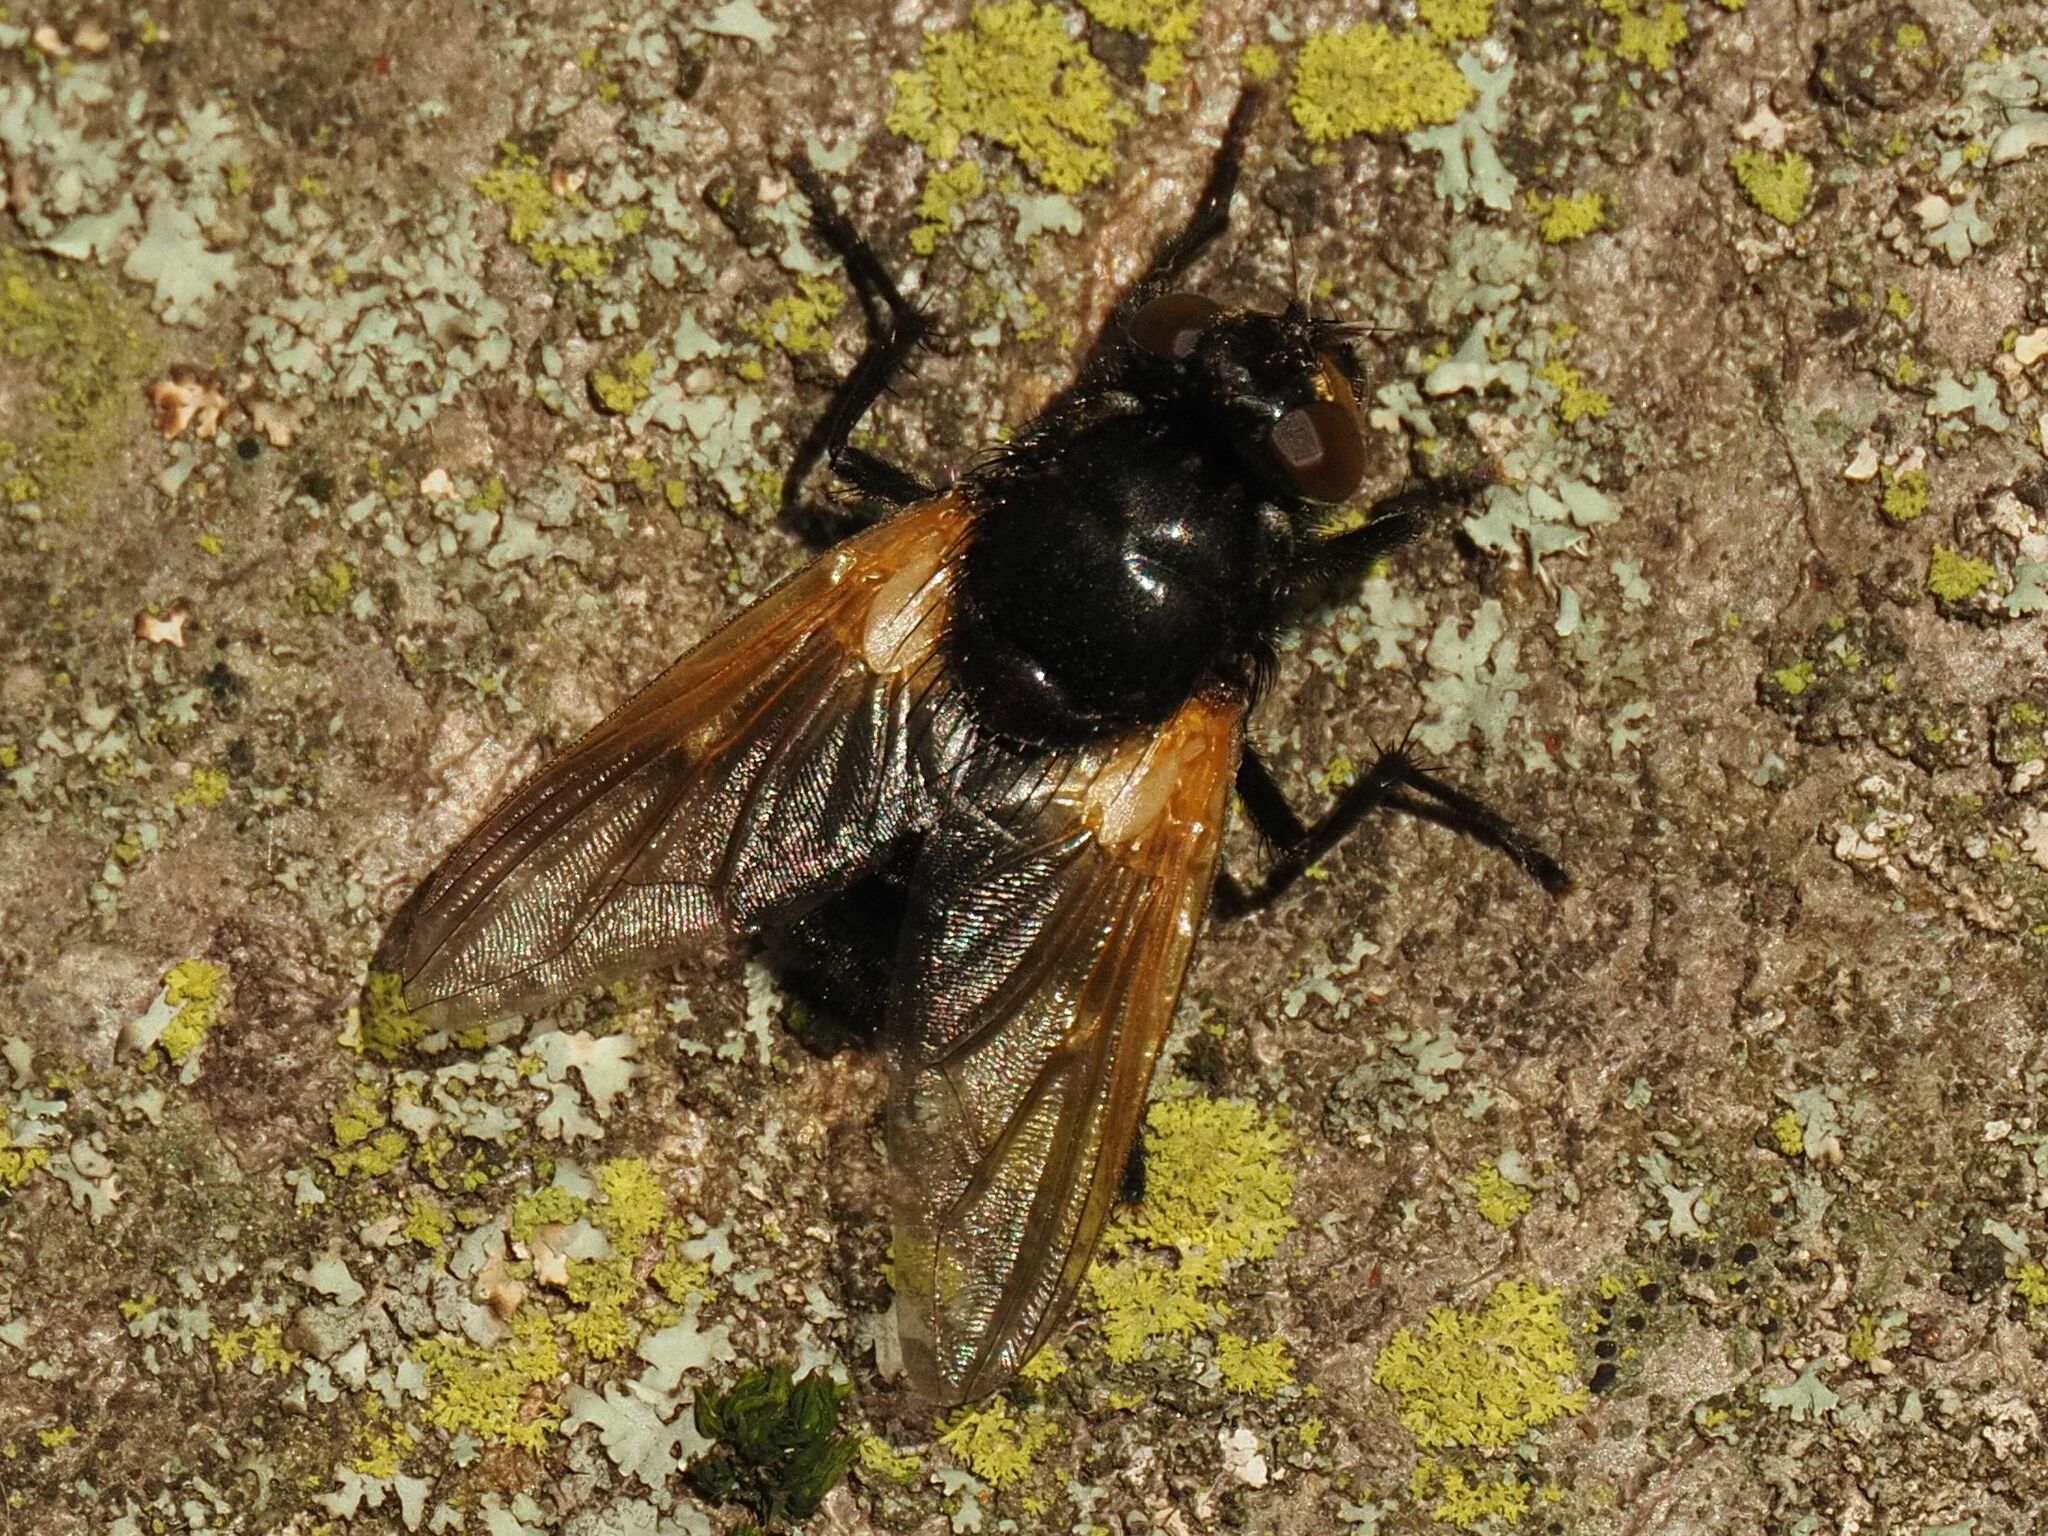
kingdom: Animalia
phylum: Arthropoda
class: Insecta
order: Diptera
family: Muscidae
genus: Mesembrina
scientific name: Mesembrina meridiana
